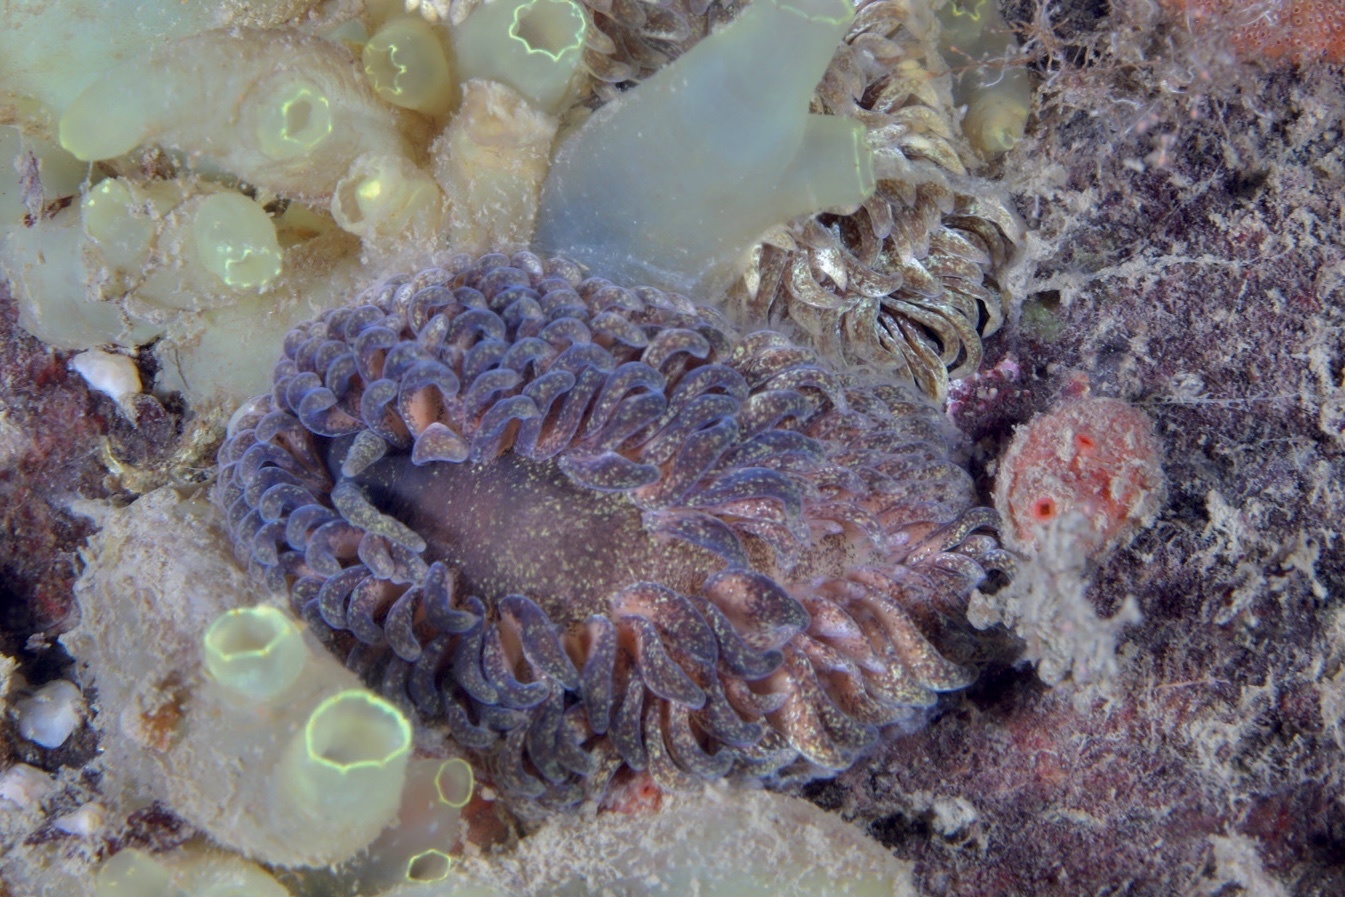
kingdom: Animalia
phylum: Mollusca
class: Gastropoda
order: Nudibranchia
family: Aeolidiidae
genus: Aeolidia
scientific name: Aeolidia papillosa
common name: Common grey sea slug
